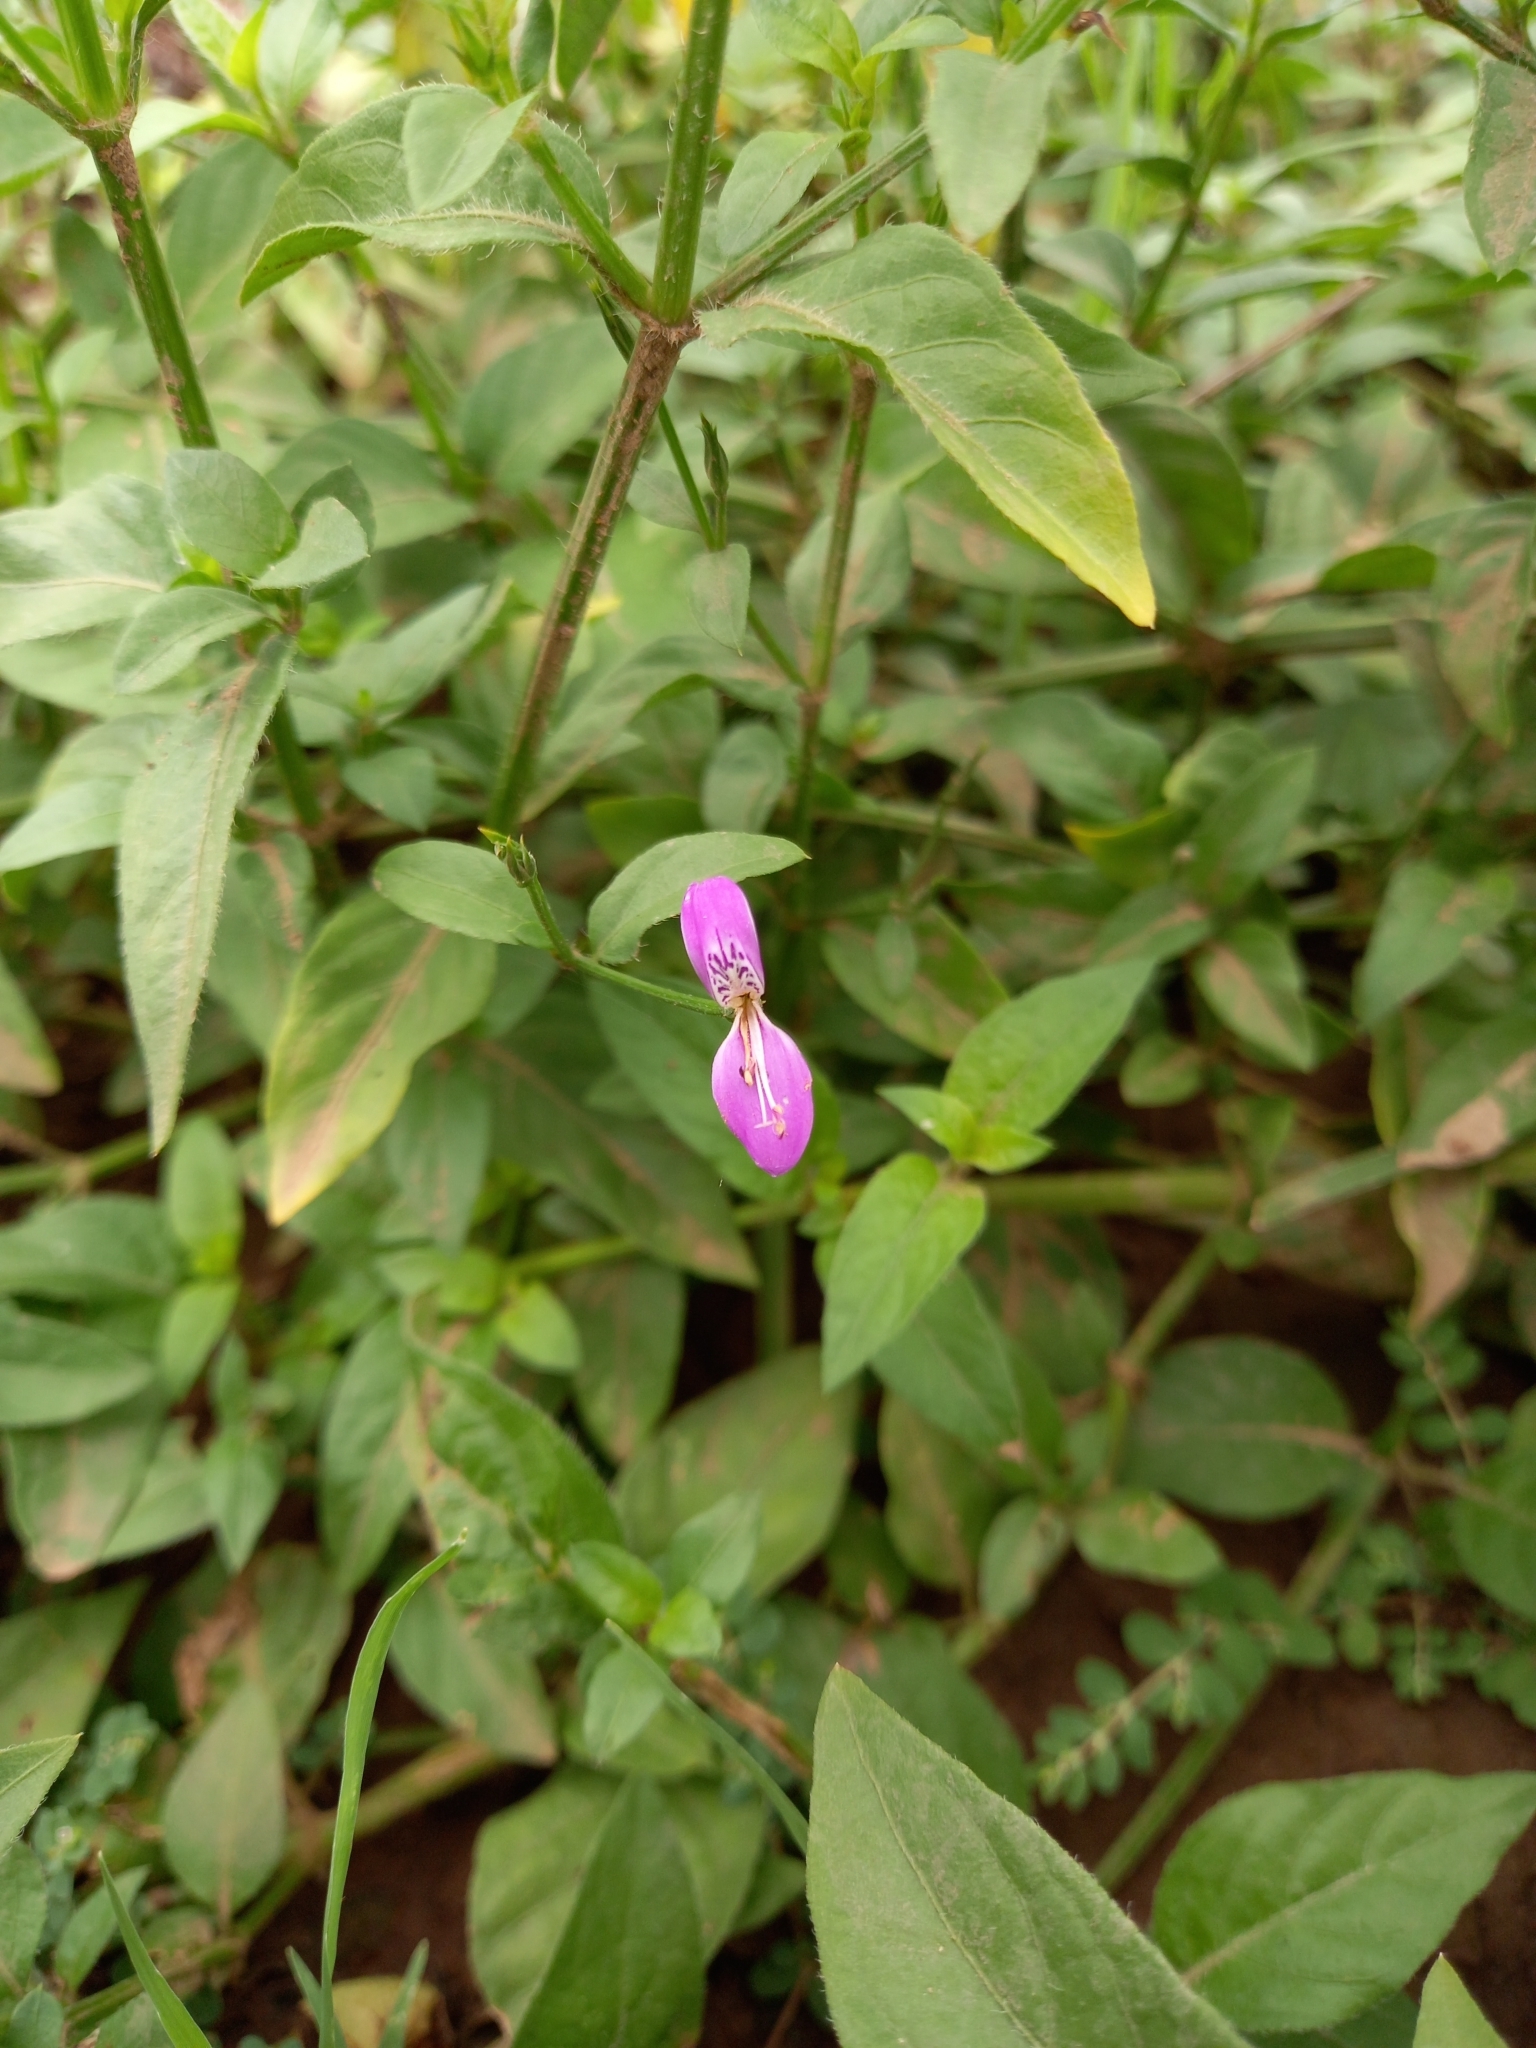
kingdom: Plantae
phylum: Tracheophyta
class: Magnoliopsida
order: Lamiales
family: Acanthaceae
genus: Dicliptera
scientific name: Dicliptera cernua
